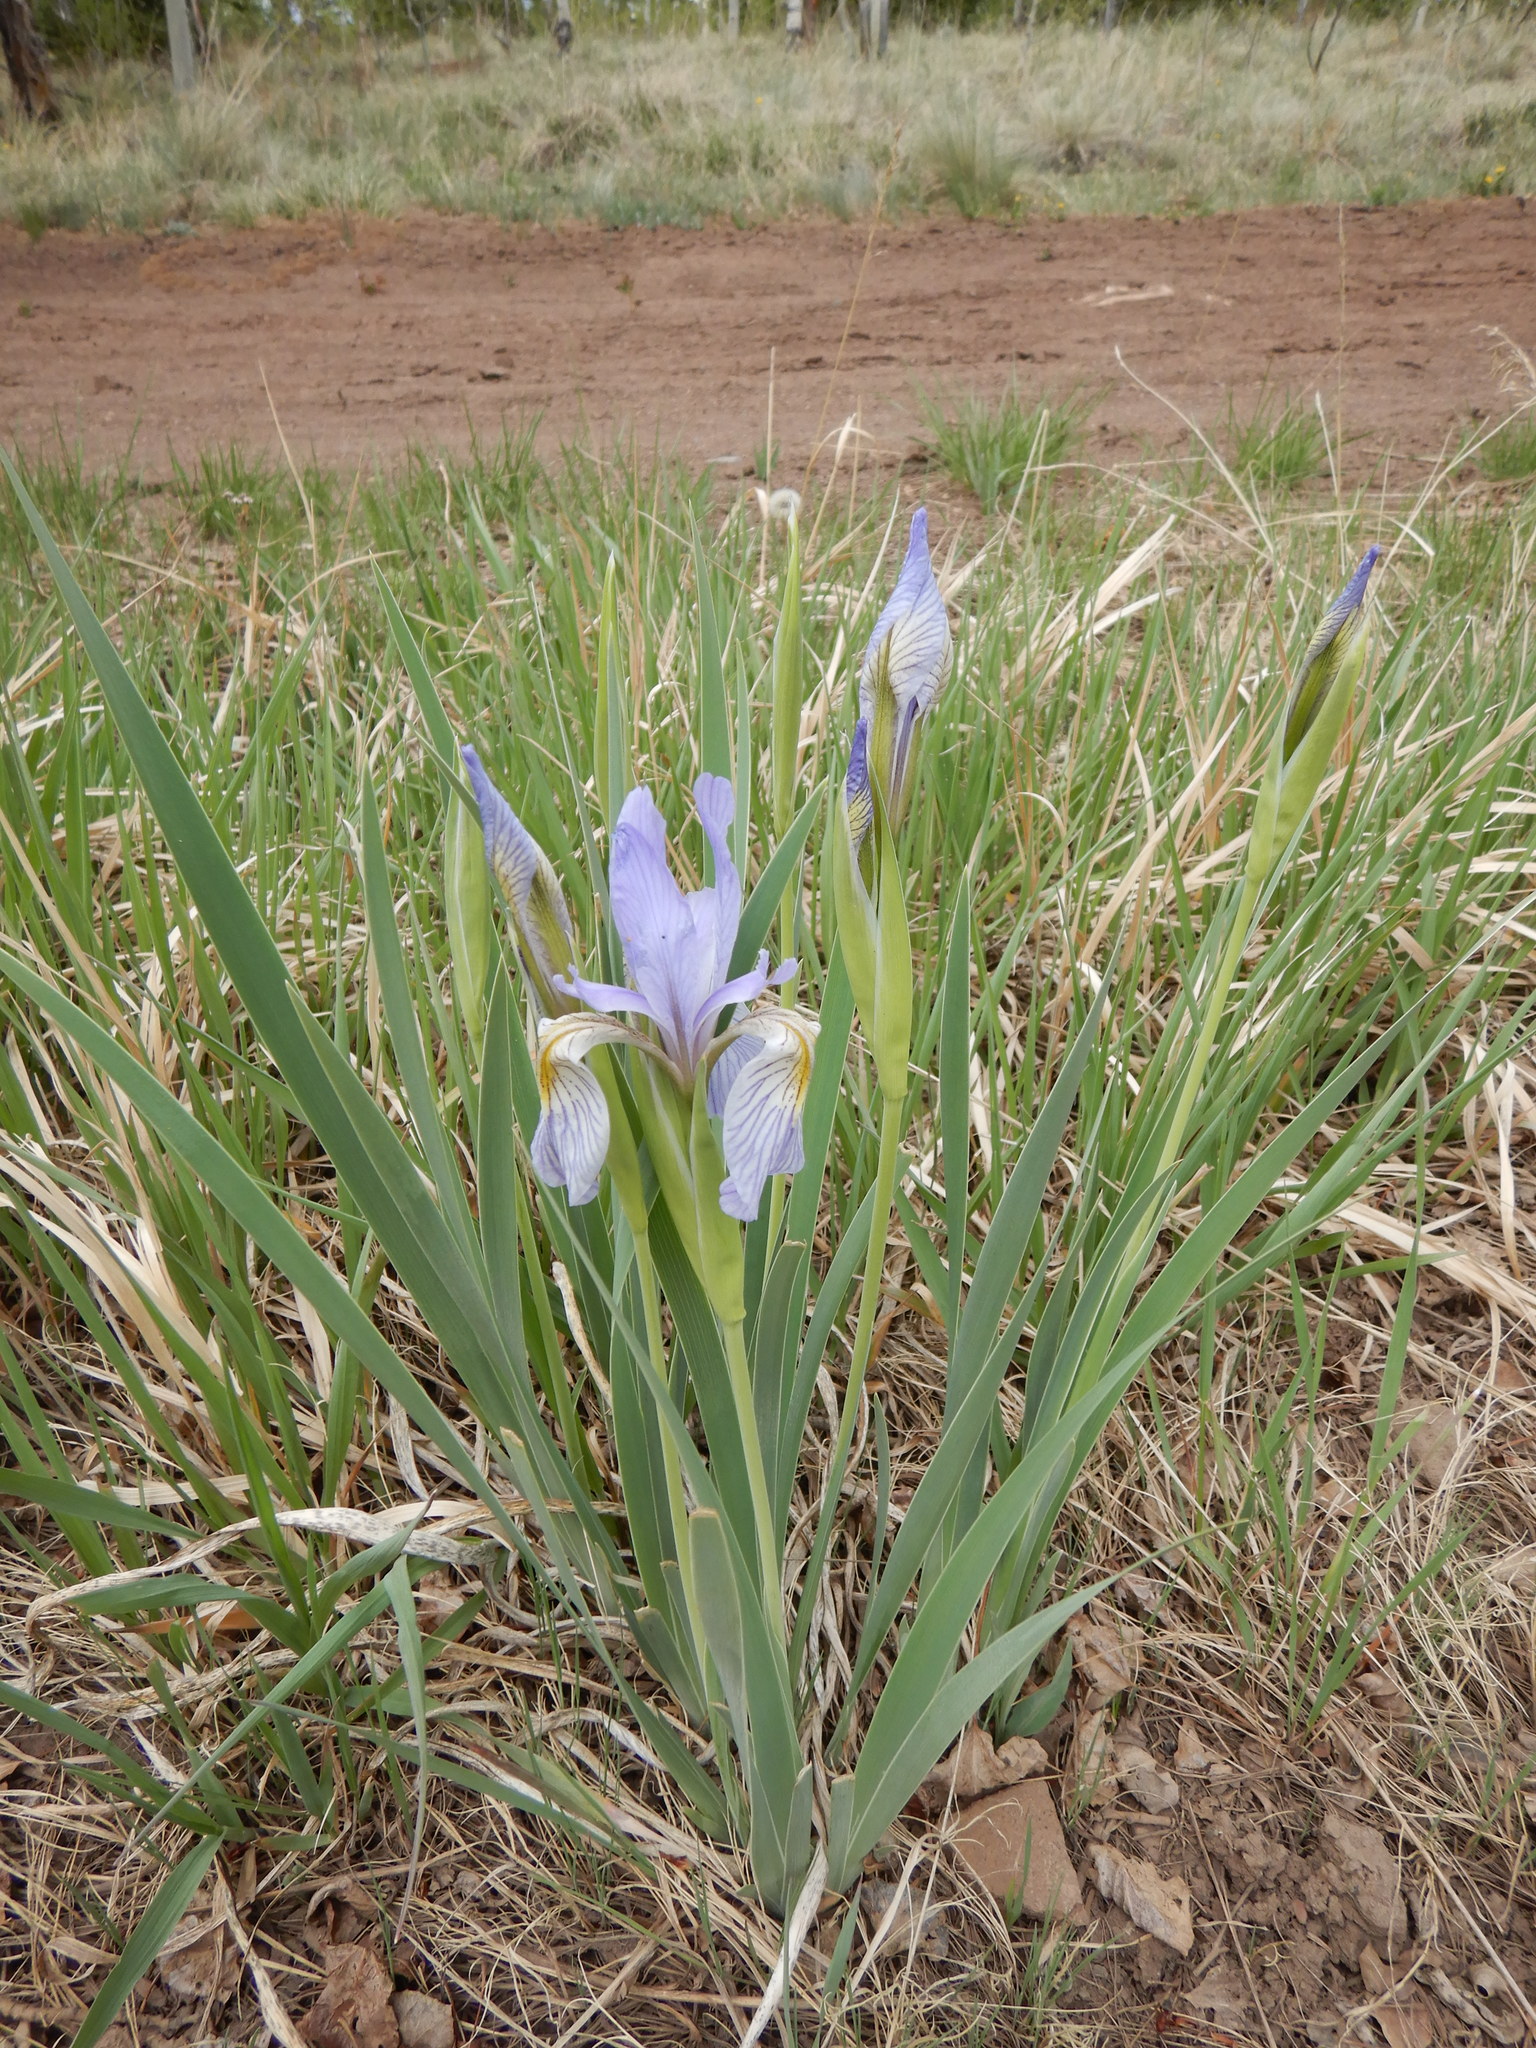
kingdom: Plantae
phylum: Tracheophyta
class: Liliopsida
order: Asparagales
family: Iridaceae
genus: Iris
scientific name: Iris missouriensis
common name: Rocky mountain iris
